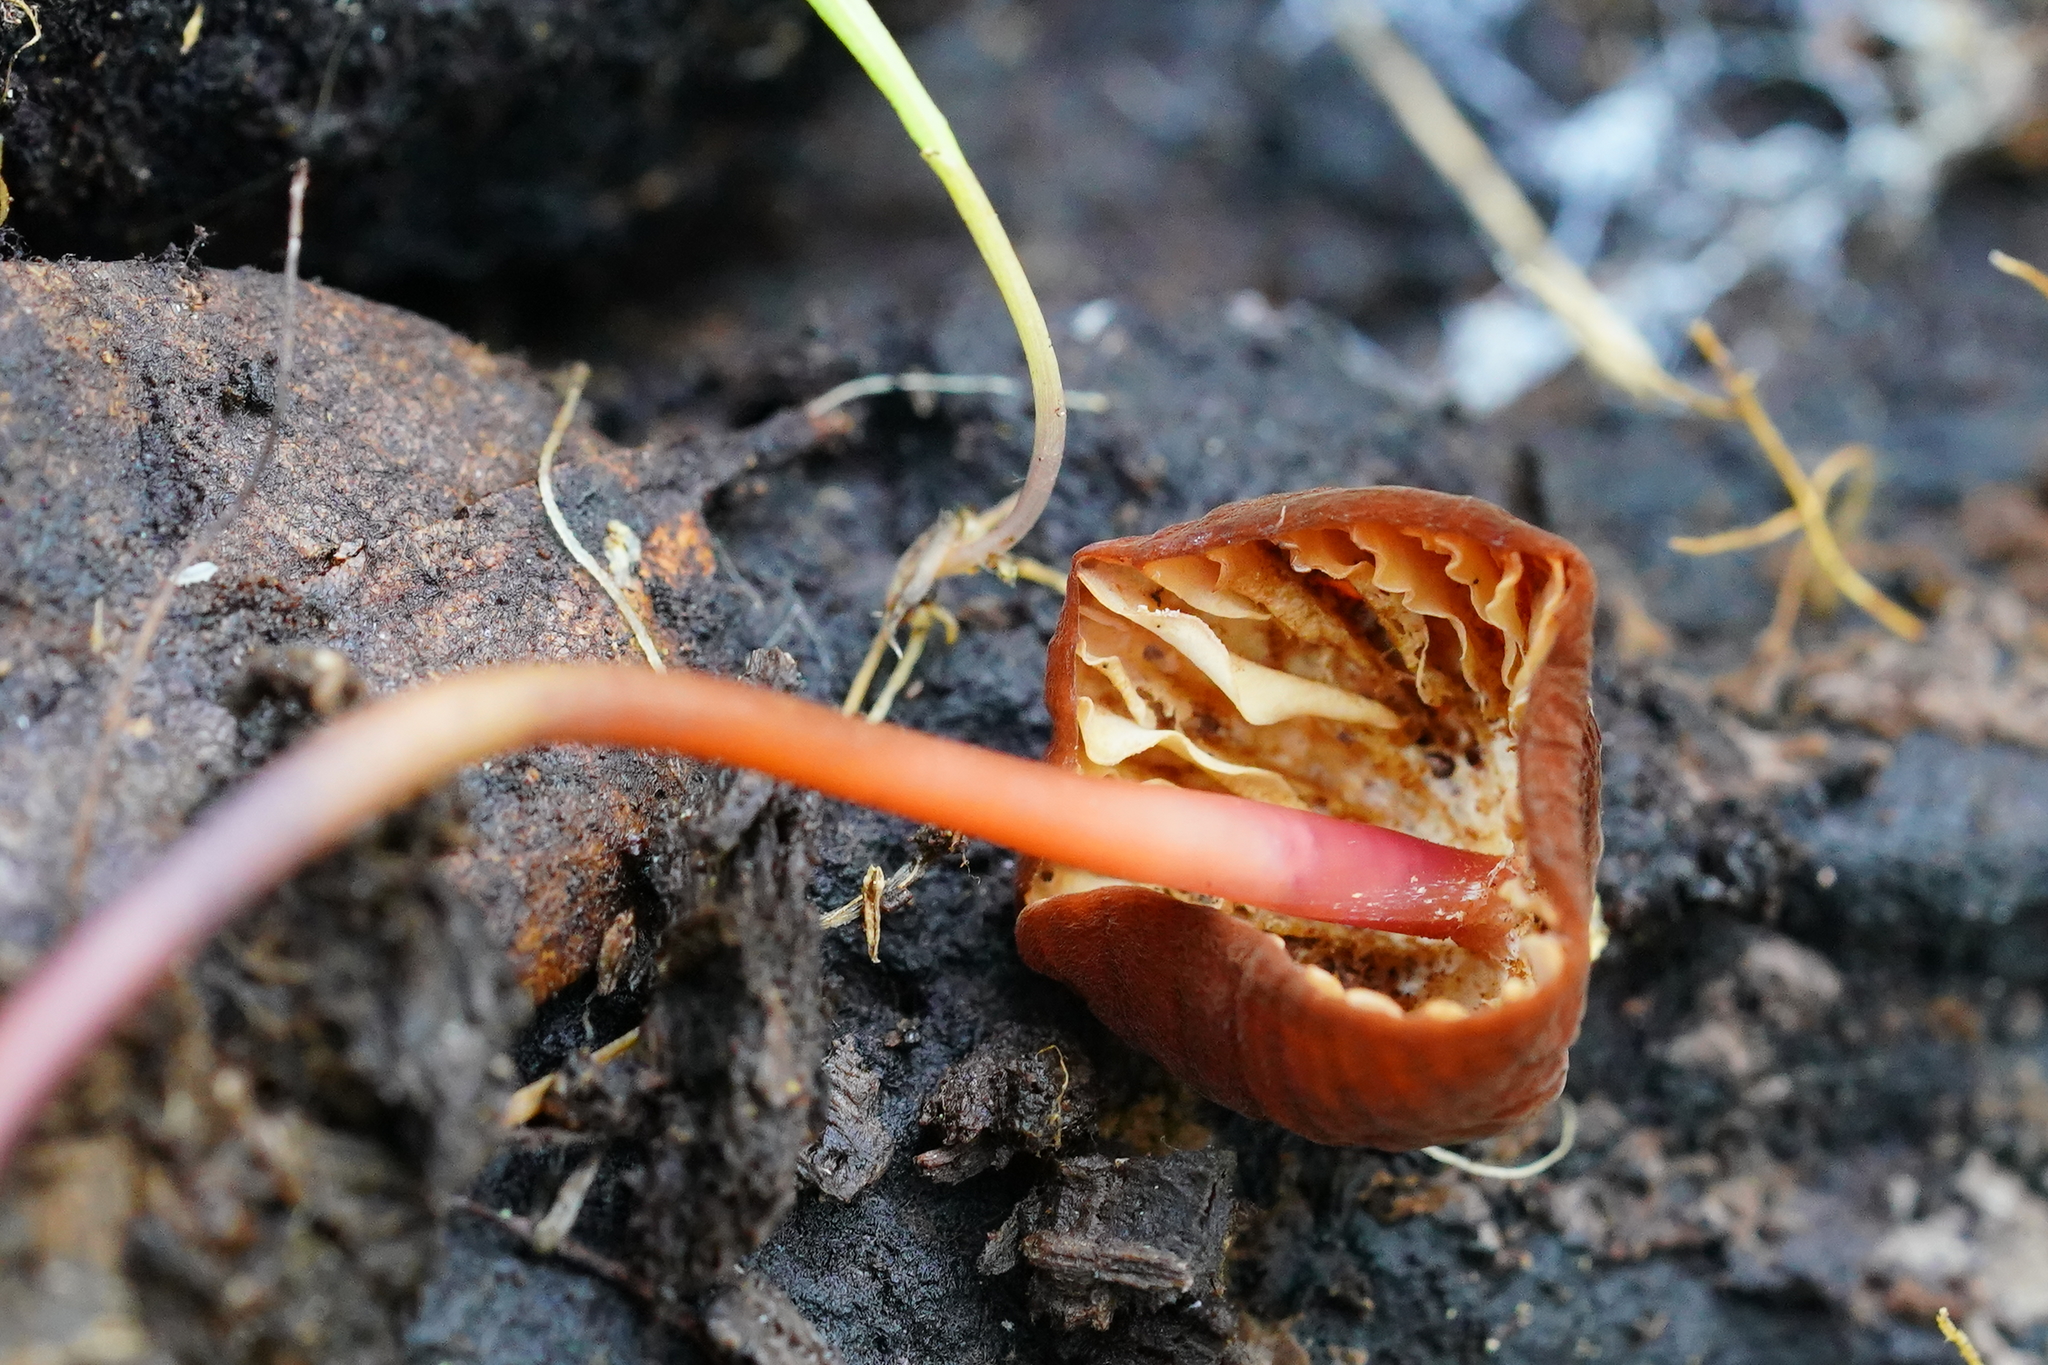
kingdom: Fungi
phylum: Basidiomycota
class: Agaricomycetes
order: Agaricales
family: Marasmiaceae
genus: Marasmius
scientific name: Marasmius plicatulus
